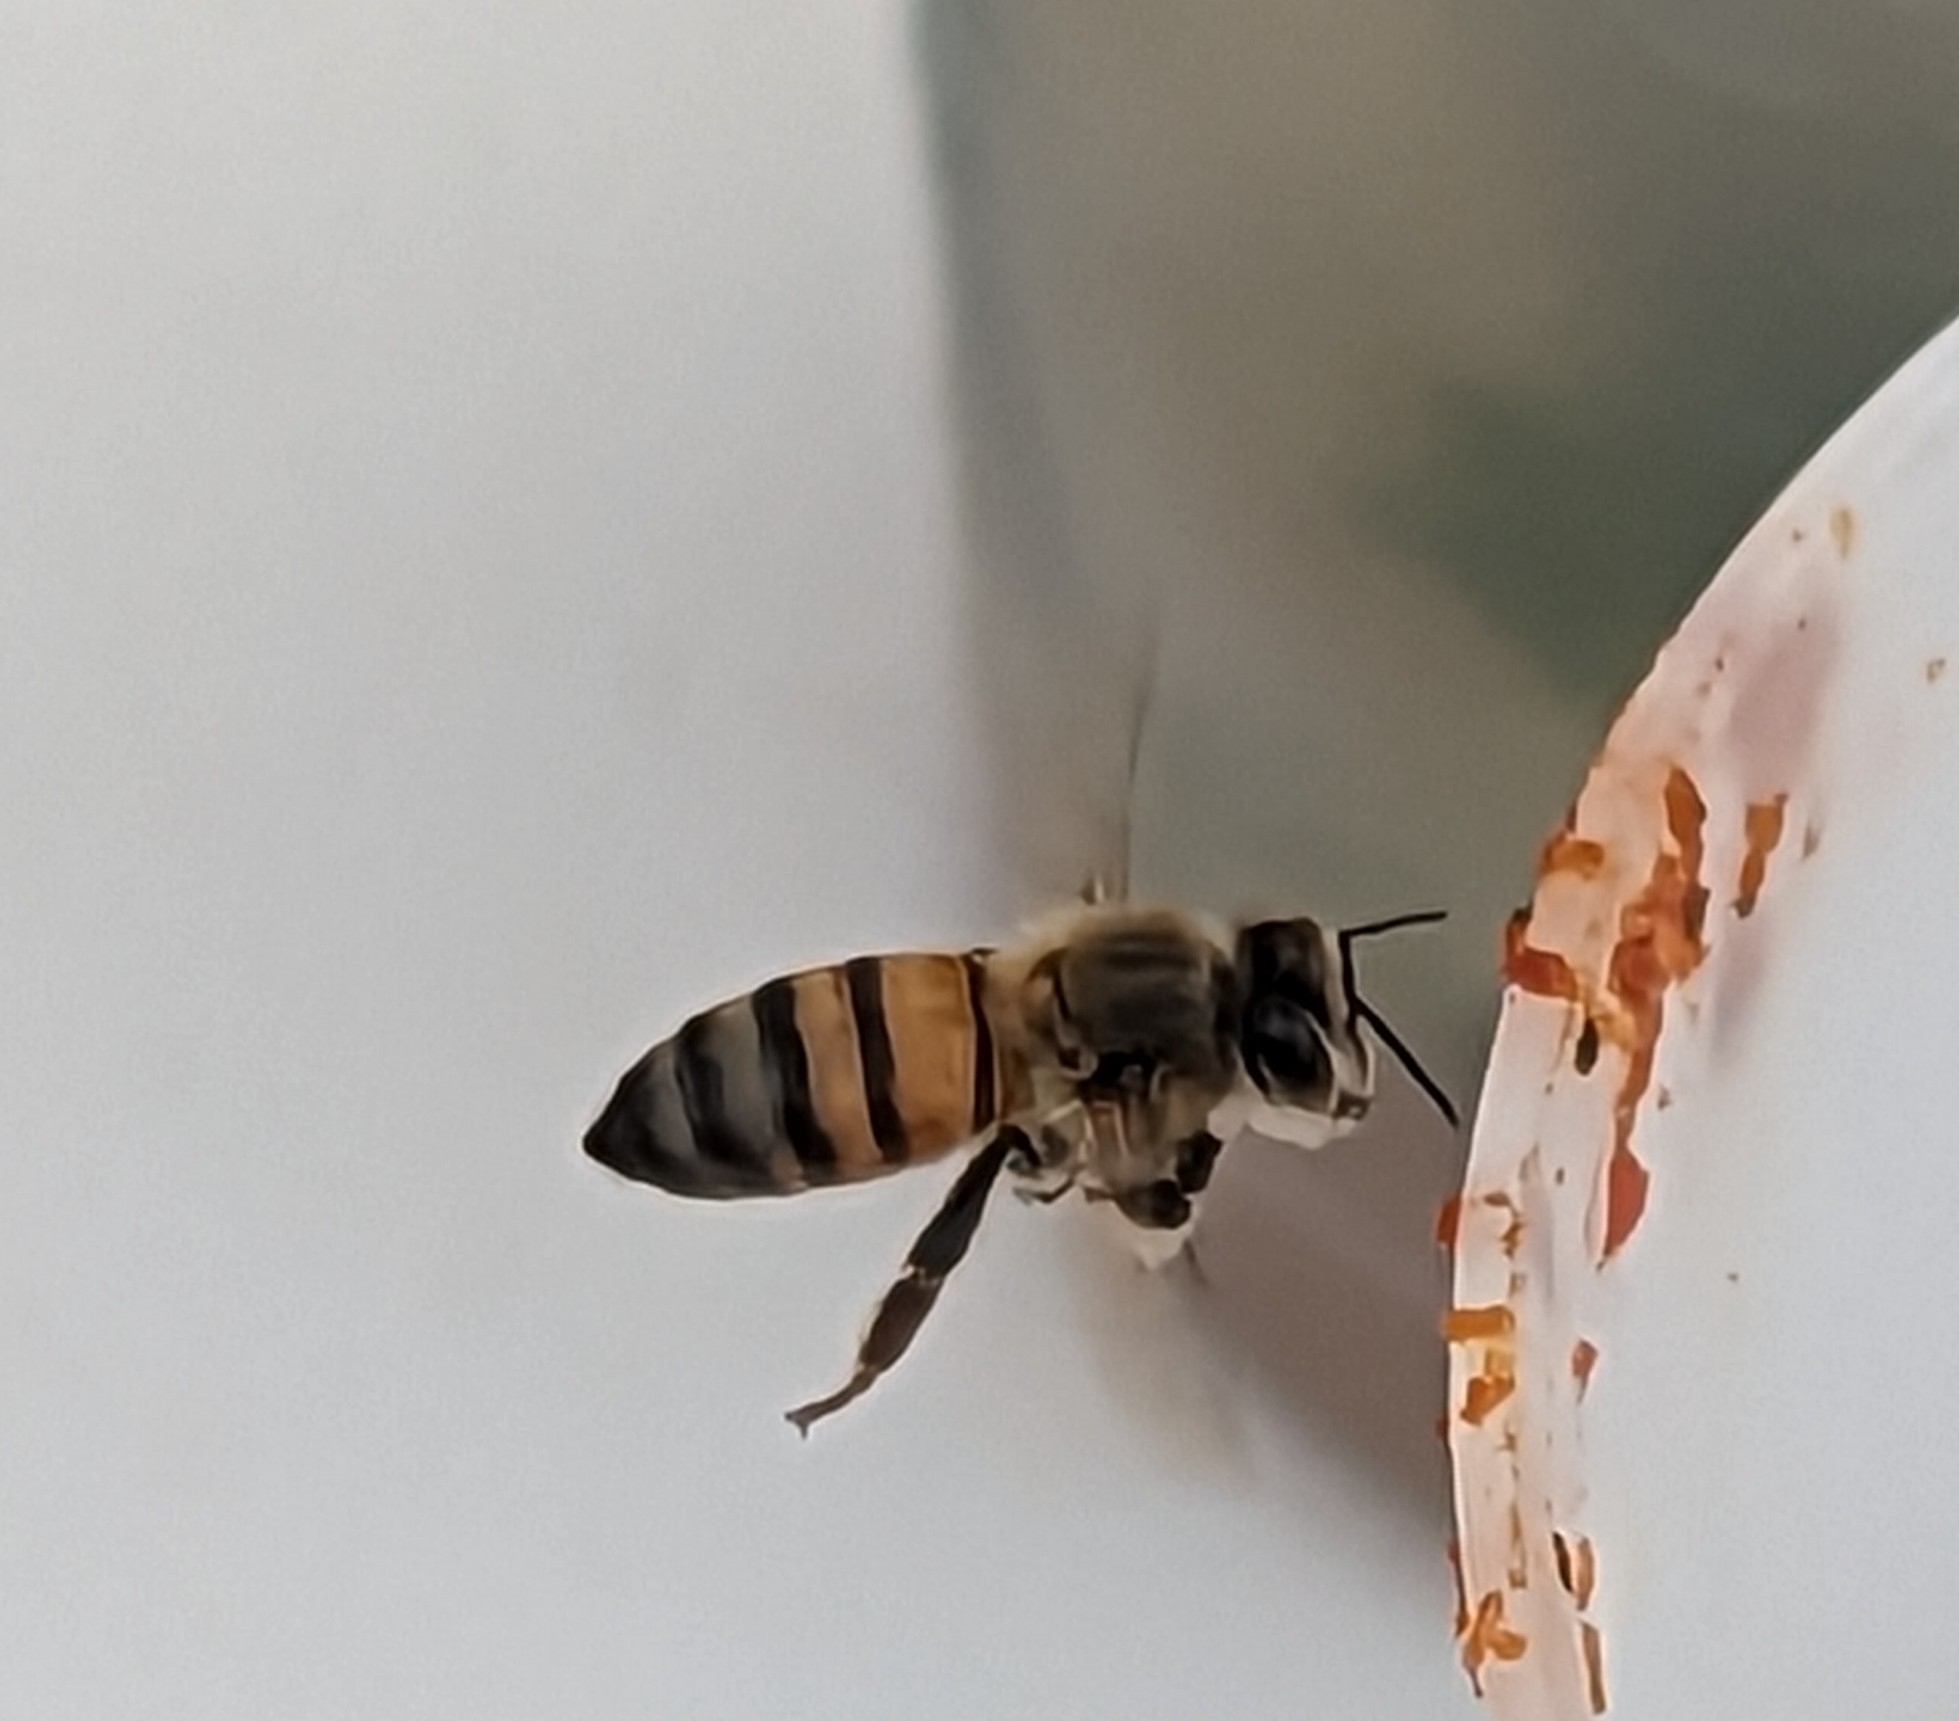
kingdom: Animalia
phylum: Arthropoda
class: Insecta
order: Hymenoptera
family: Apidae
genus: Apis
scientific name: Apis mellifera
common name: Honey bee
